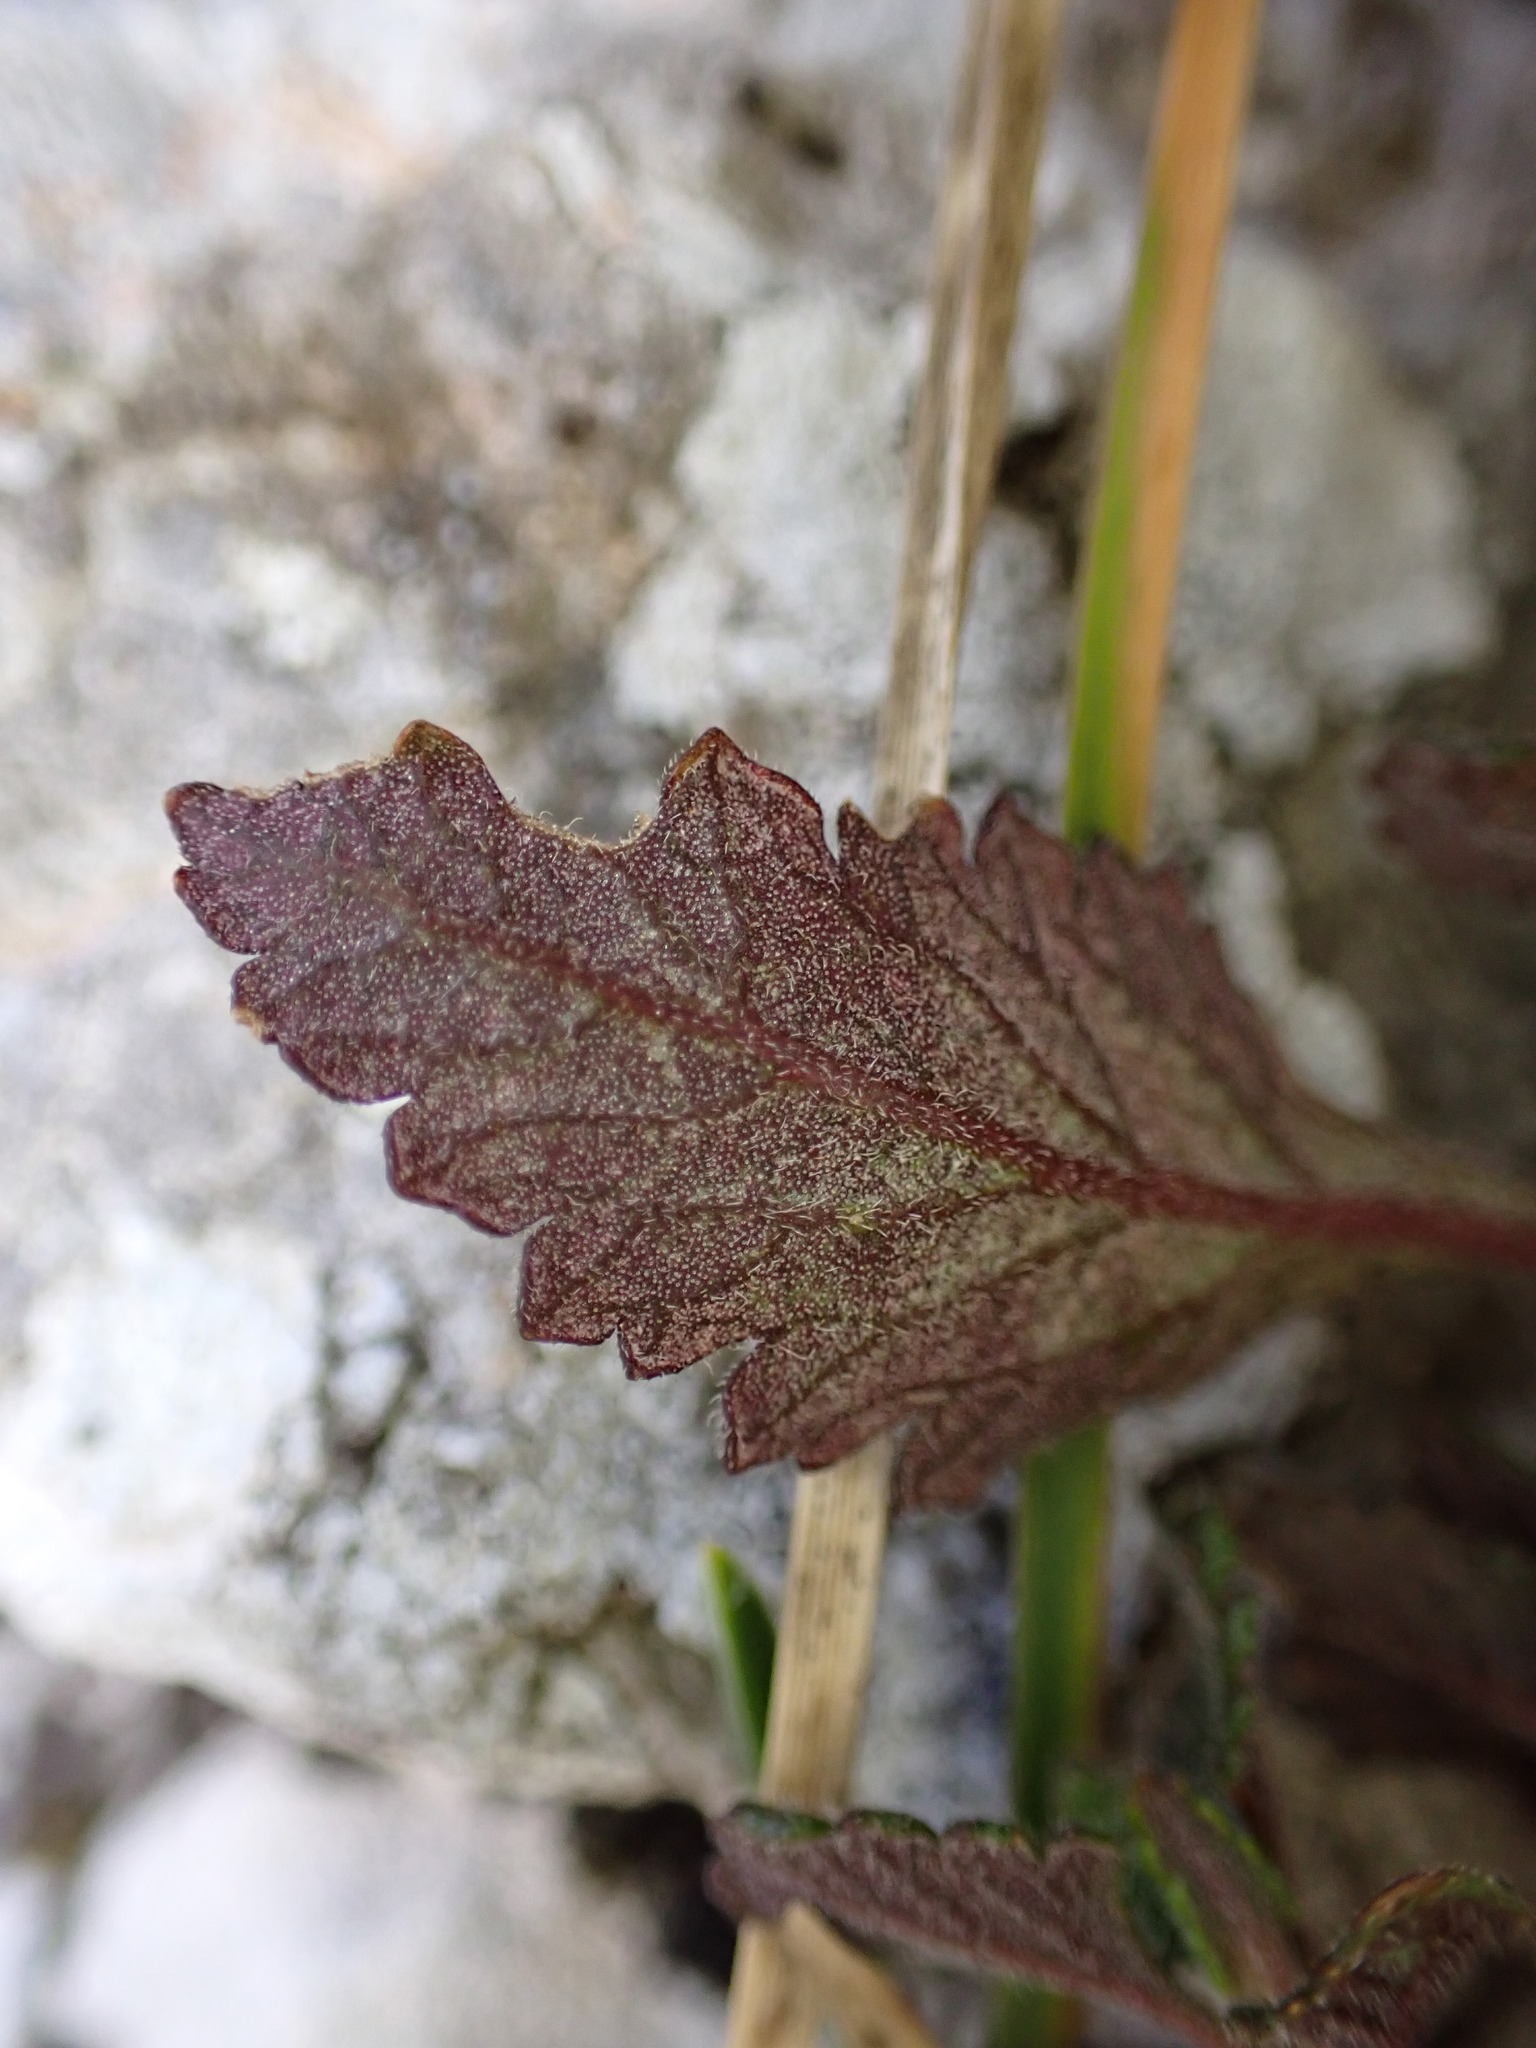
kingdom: Plantae
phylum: Tracheophyta
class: Magnoliopsida
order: Lamiales
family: Lamiaceae
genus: Teucrium
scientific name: Teucrium chamaedrys
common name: Wall germander
